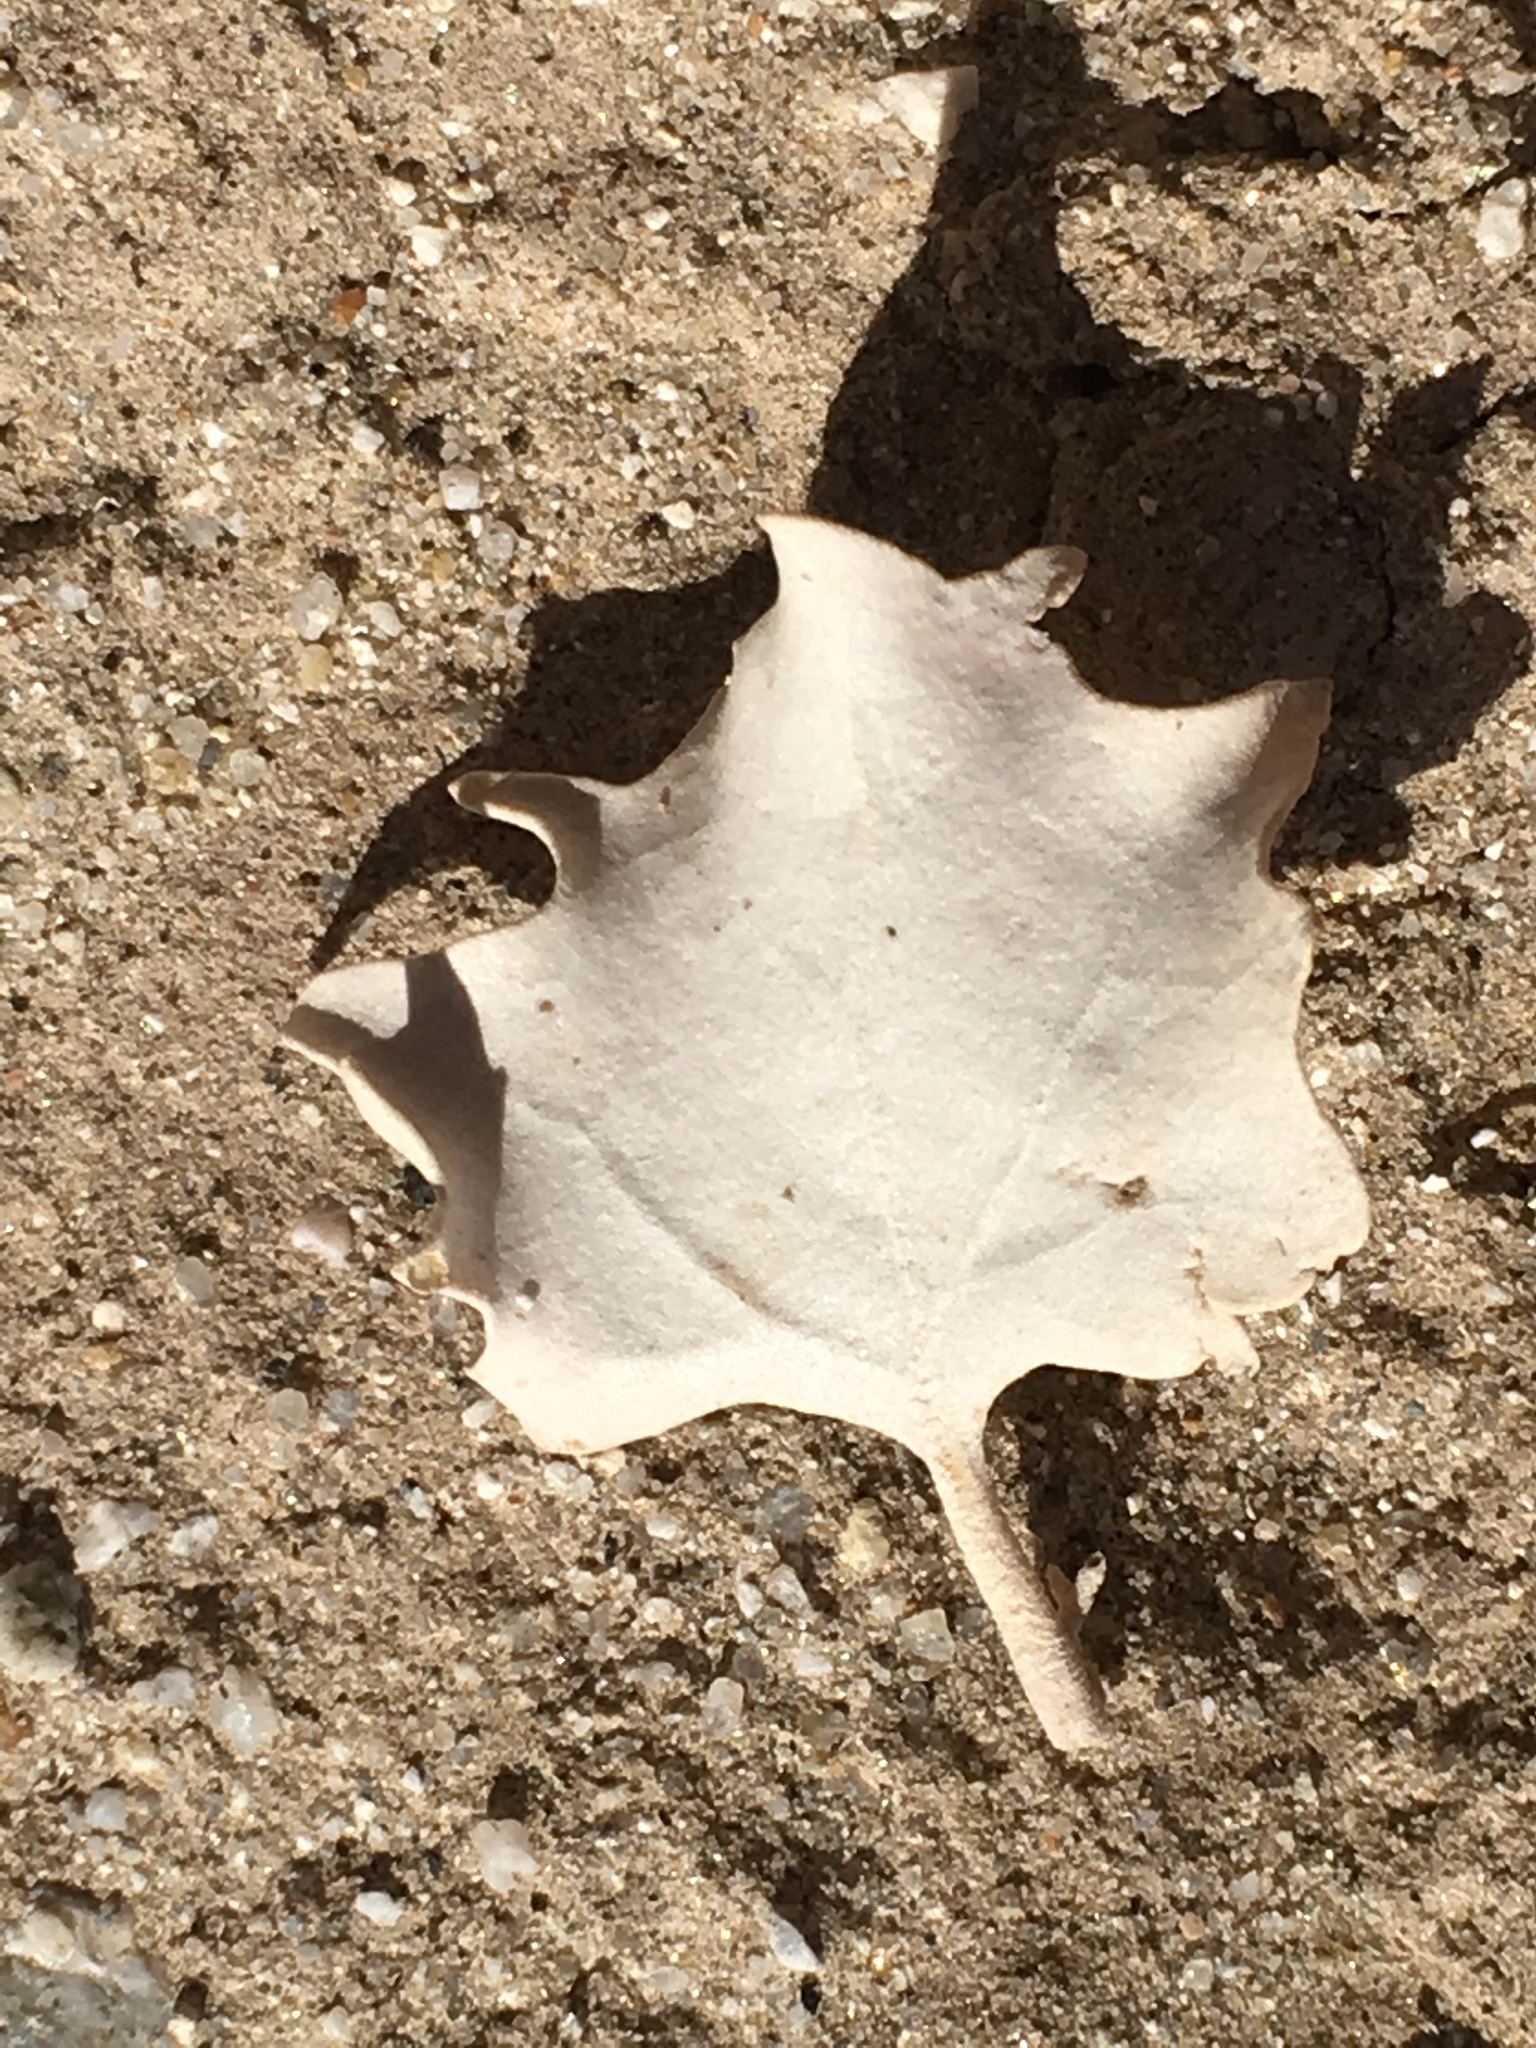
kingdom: Plantae
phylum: Tracheophyta
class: Magnoliopsida
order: Caryophyllales
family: Amaranthaceae
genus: Atriplex
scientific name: Atriplex hymenelytra
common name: Desert-holly
